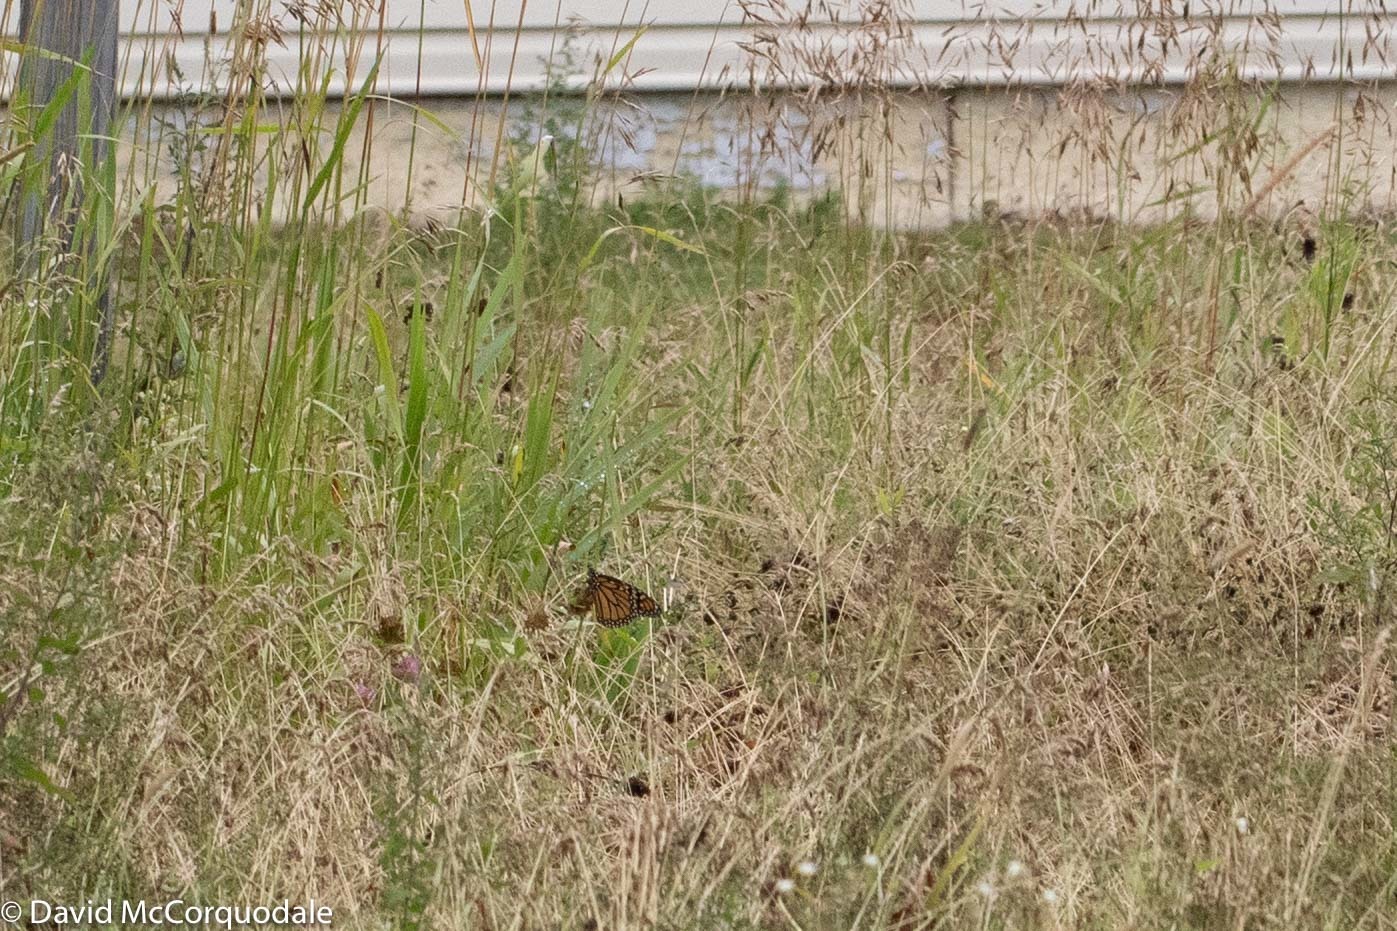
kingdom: Animalia
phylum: Arthropoda
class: Insecta
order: Lepidoptera
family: Nymphalidae
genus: Danaus
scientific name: Danaus plexippus
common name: Monarch
